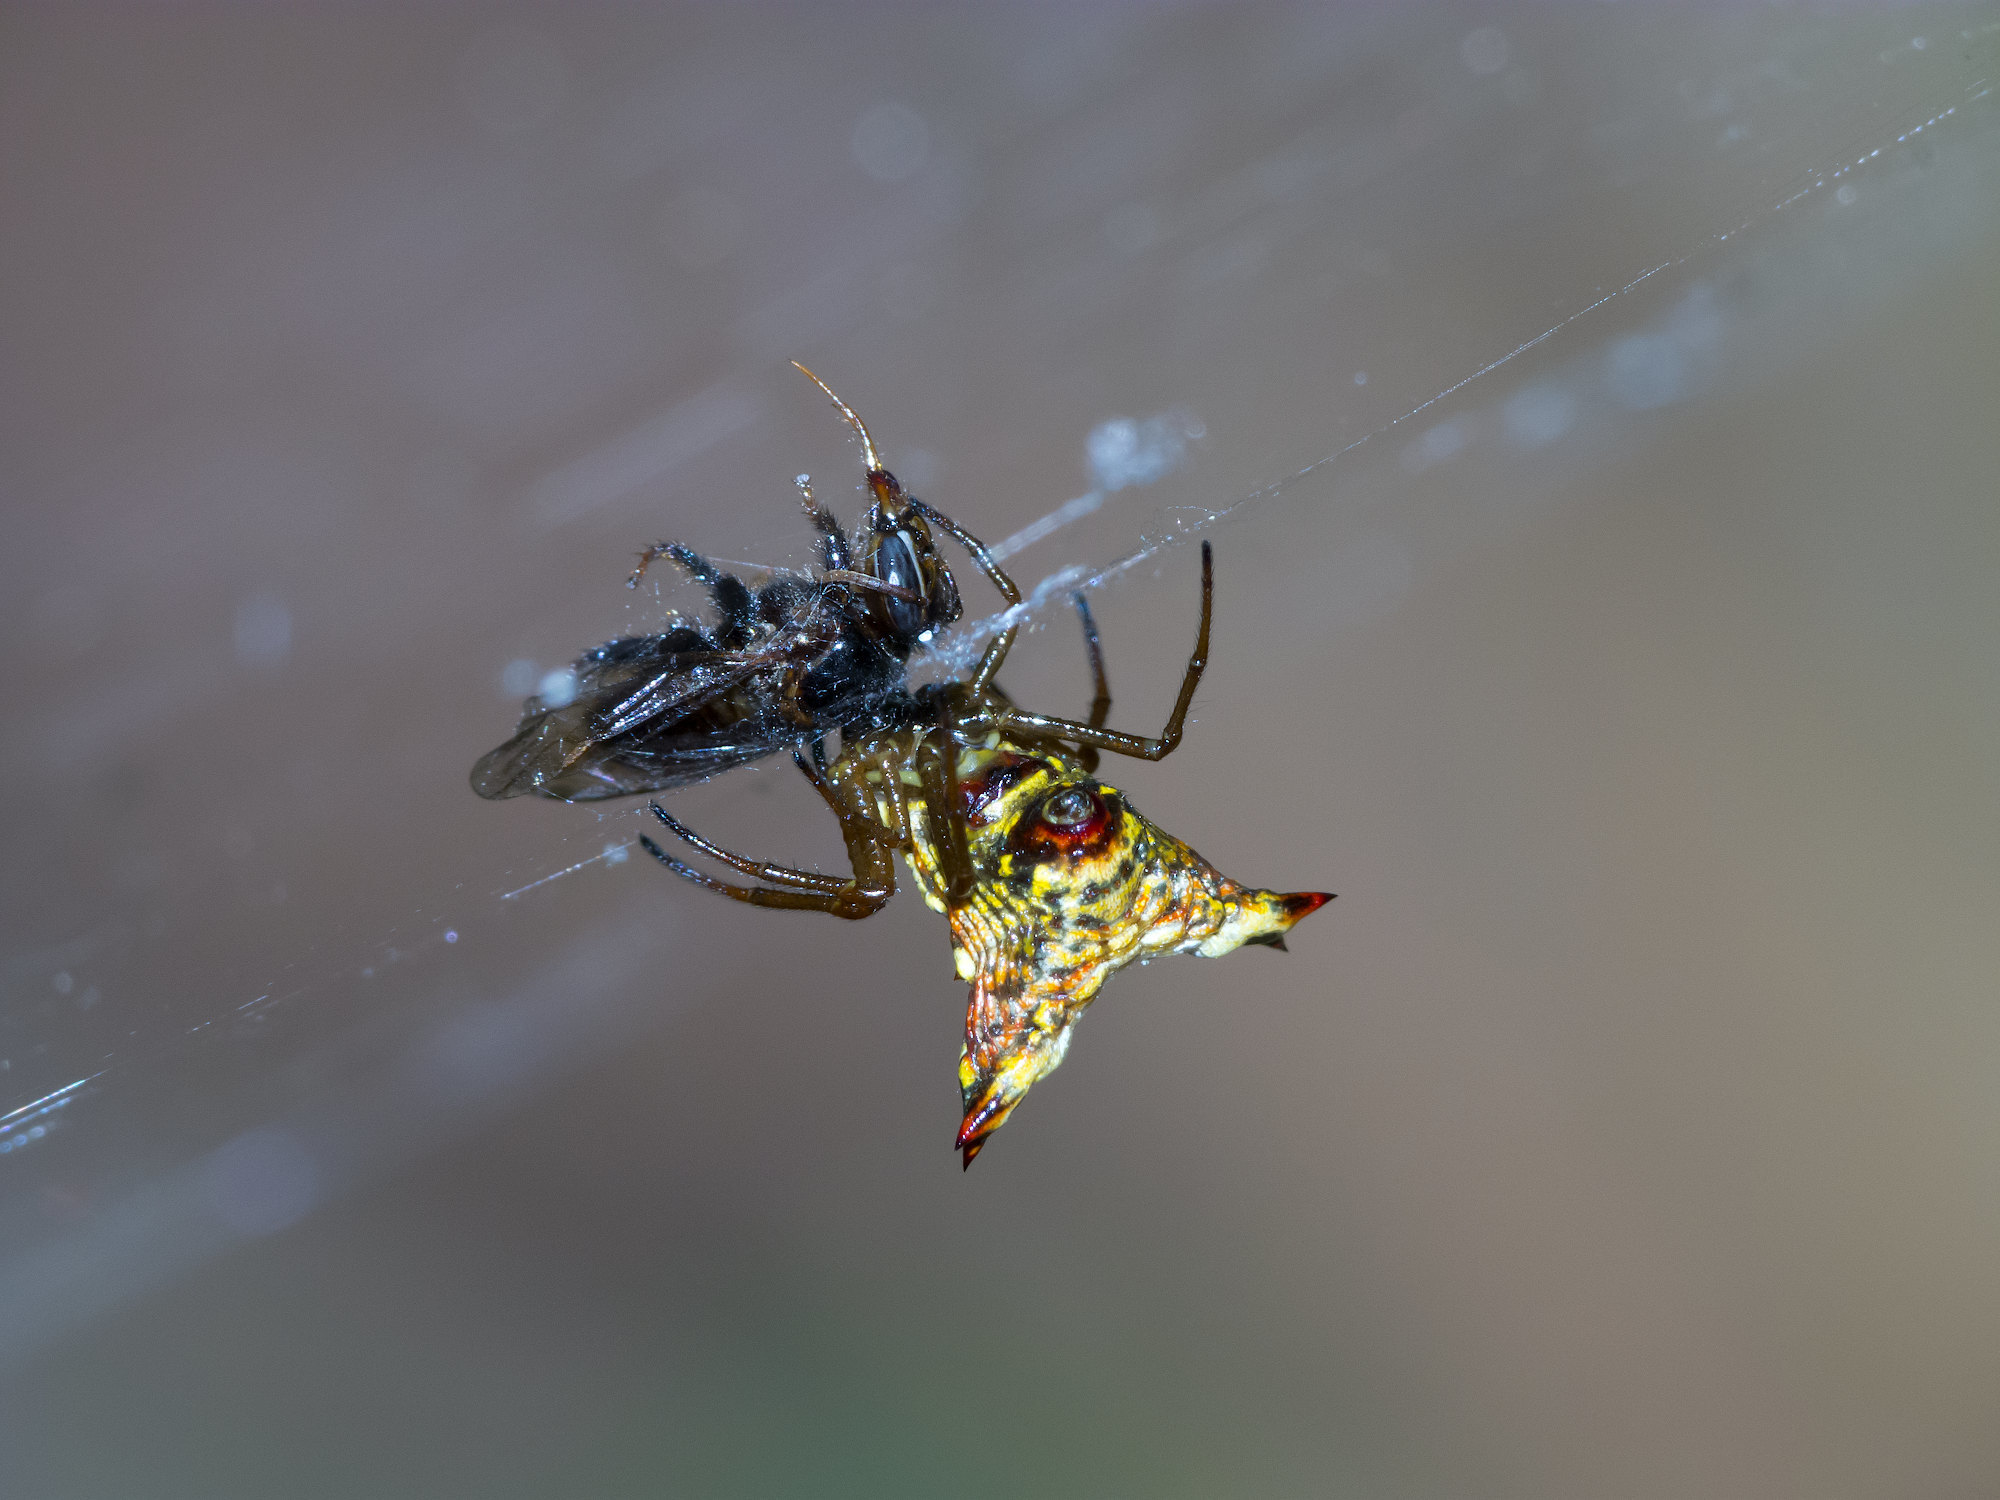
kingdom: Animalia
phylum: Arthropoda
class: Arachnida
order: Araneae
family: Araneidae
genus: Micrathena
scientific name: Micrathena lucasi
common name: Orb weavers
